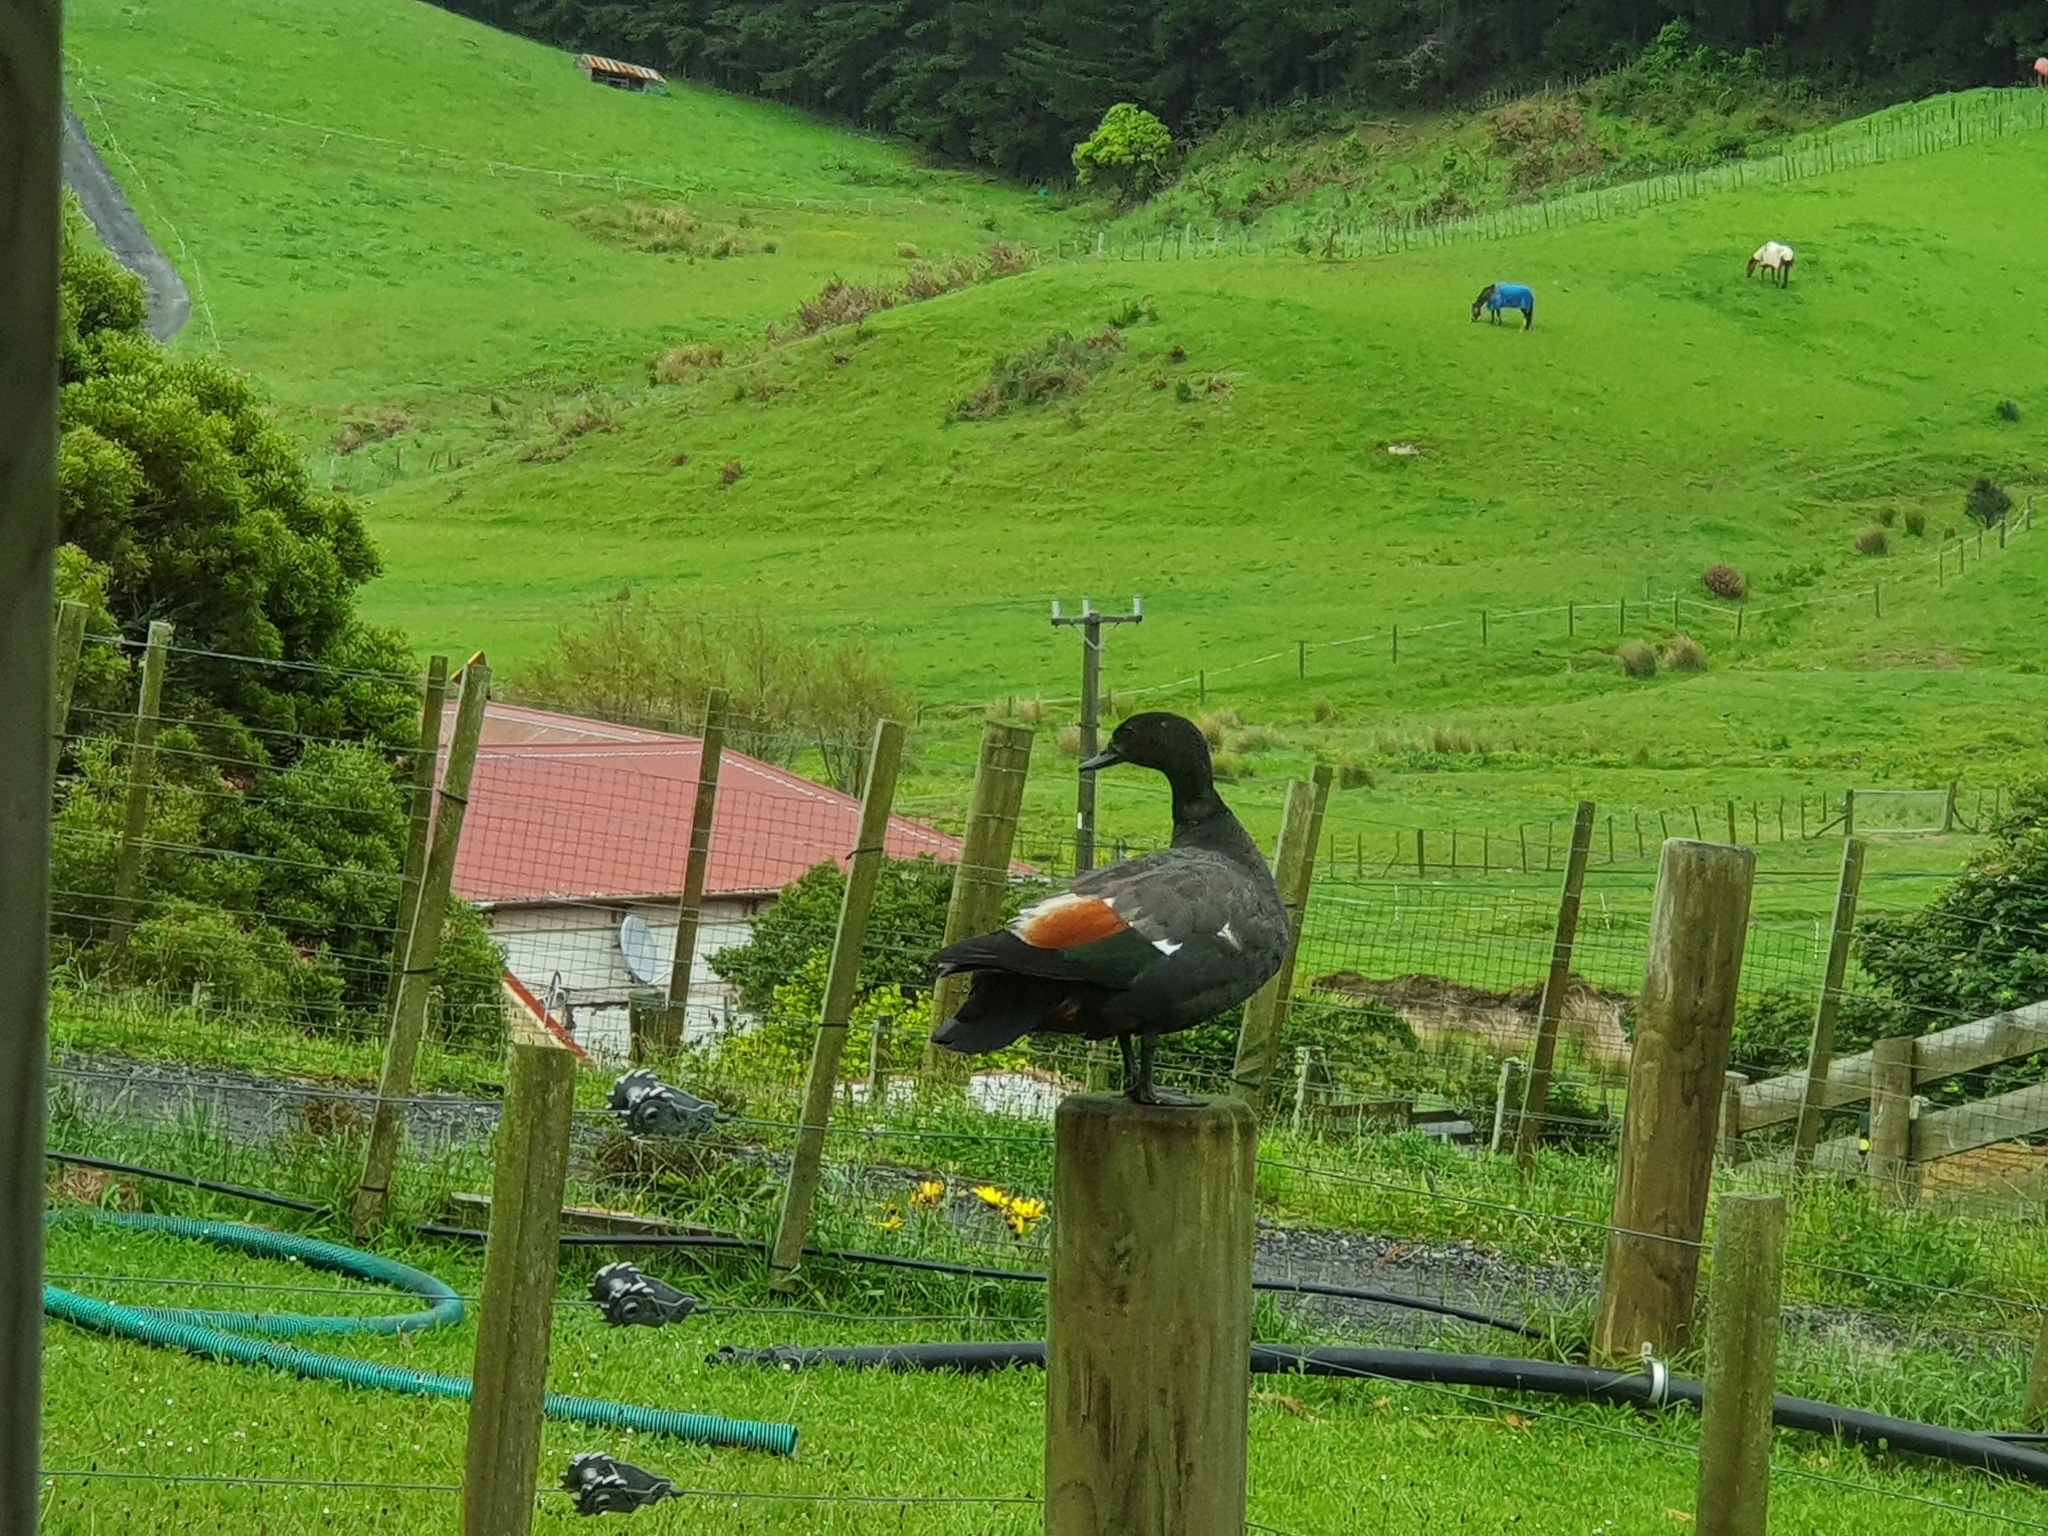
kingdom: Animalia
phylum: Chordata
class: Aves
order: Anseriformes
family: Anatidae
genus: Tadorna
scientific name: Tadorna variegata
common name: Paradise shelduck
